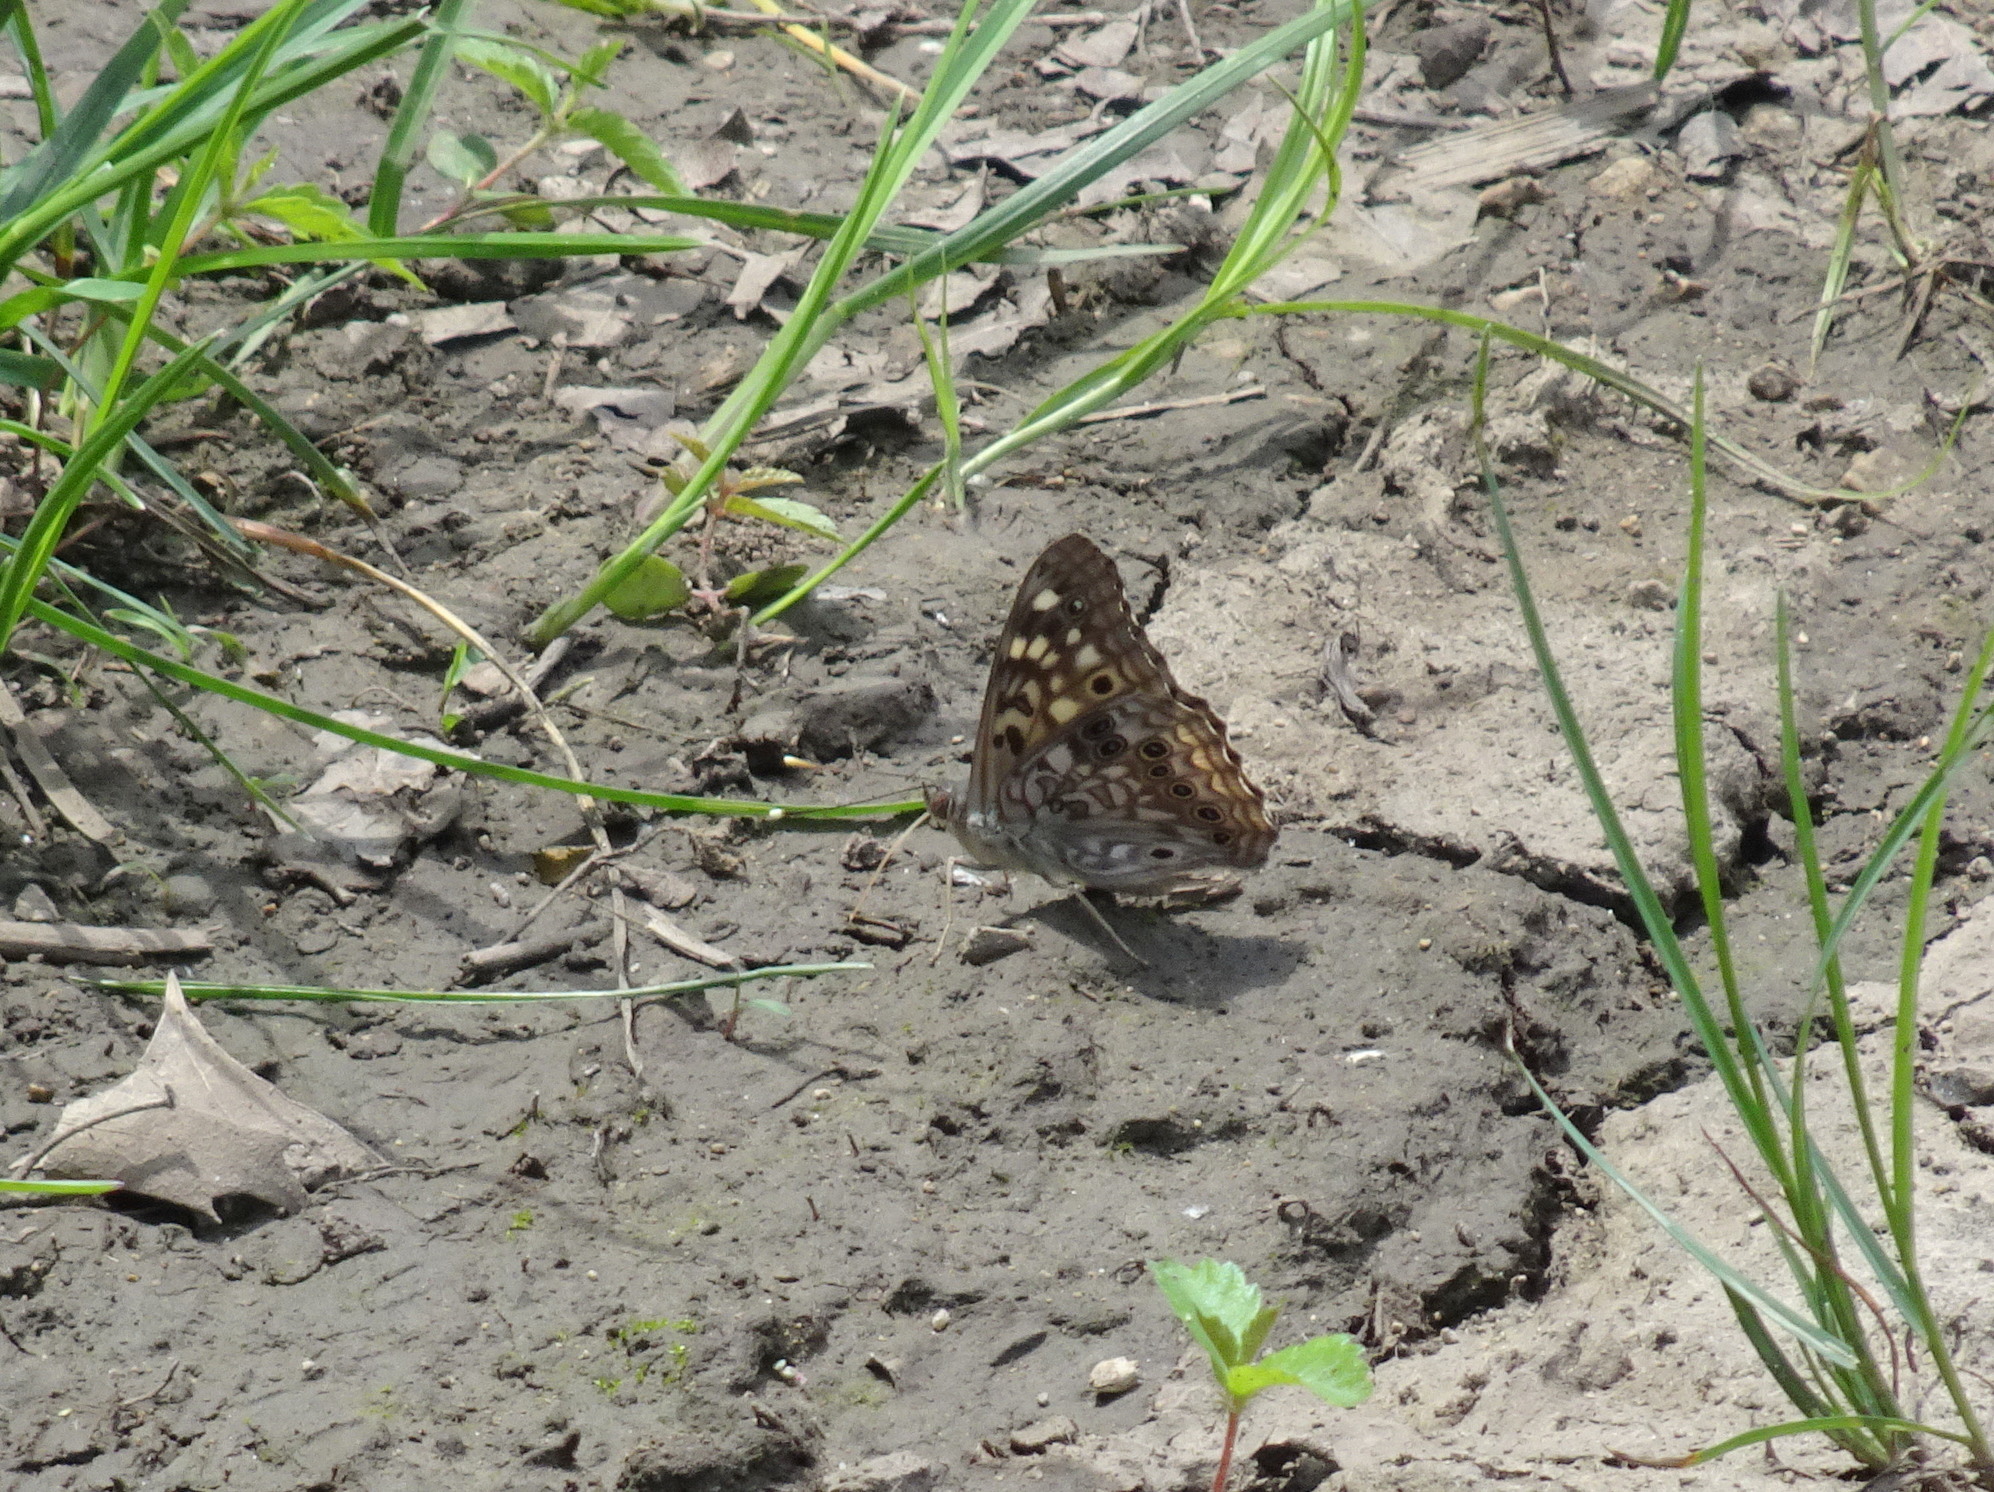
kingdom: Animalia
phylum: Arthropoda
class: Insecta
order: Lepidoptera
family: Nymphalidae
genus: Asterocampa
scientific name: Asterocampa celtis
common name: Hackberry emperor
